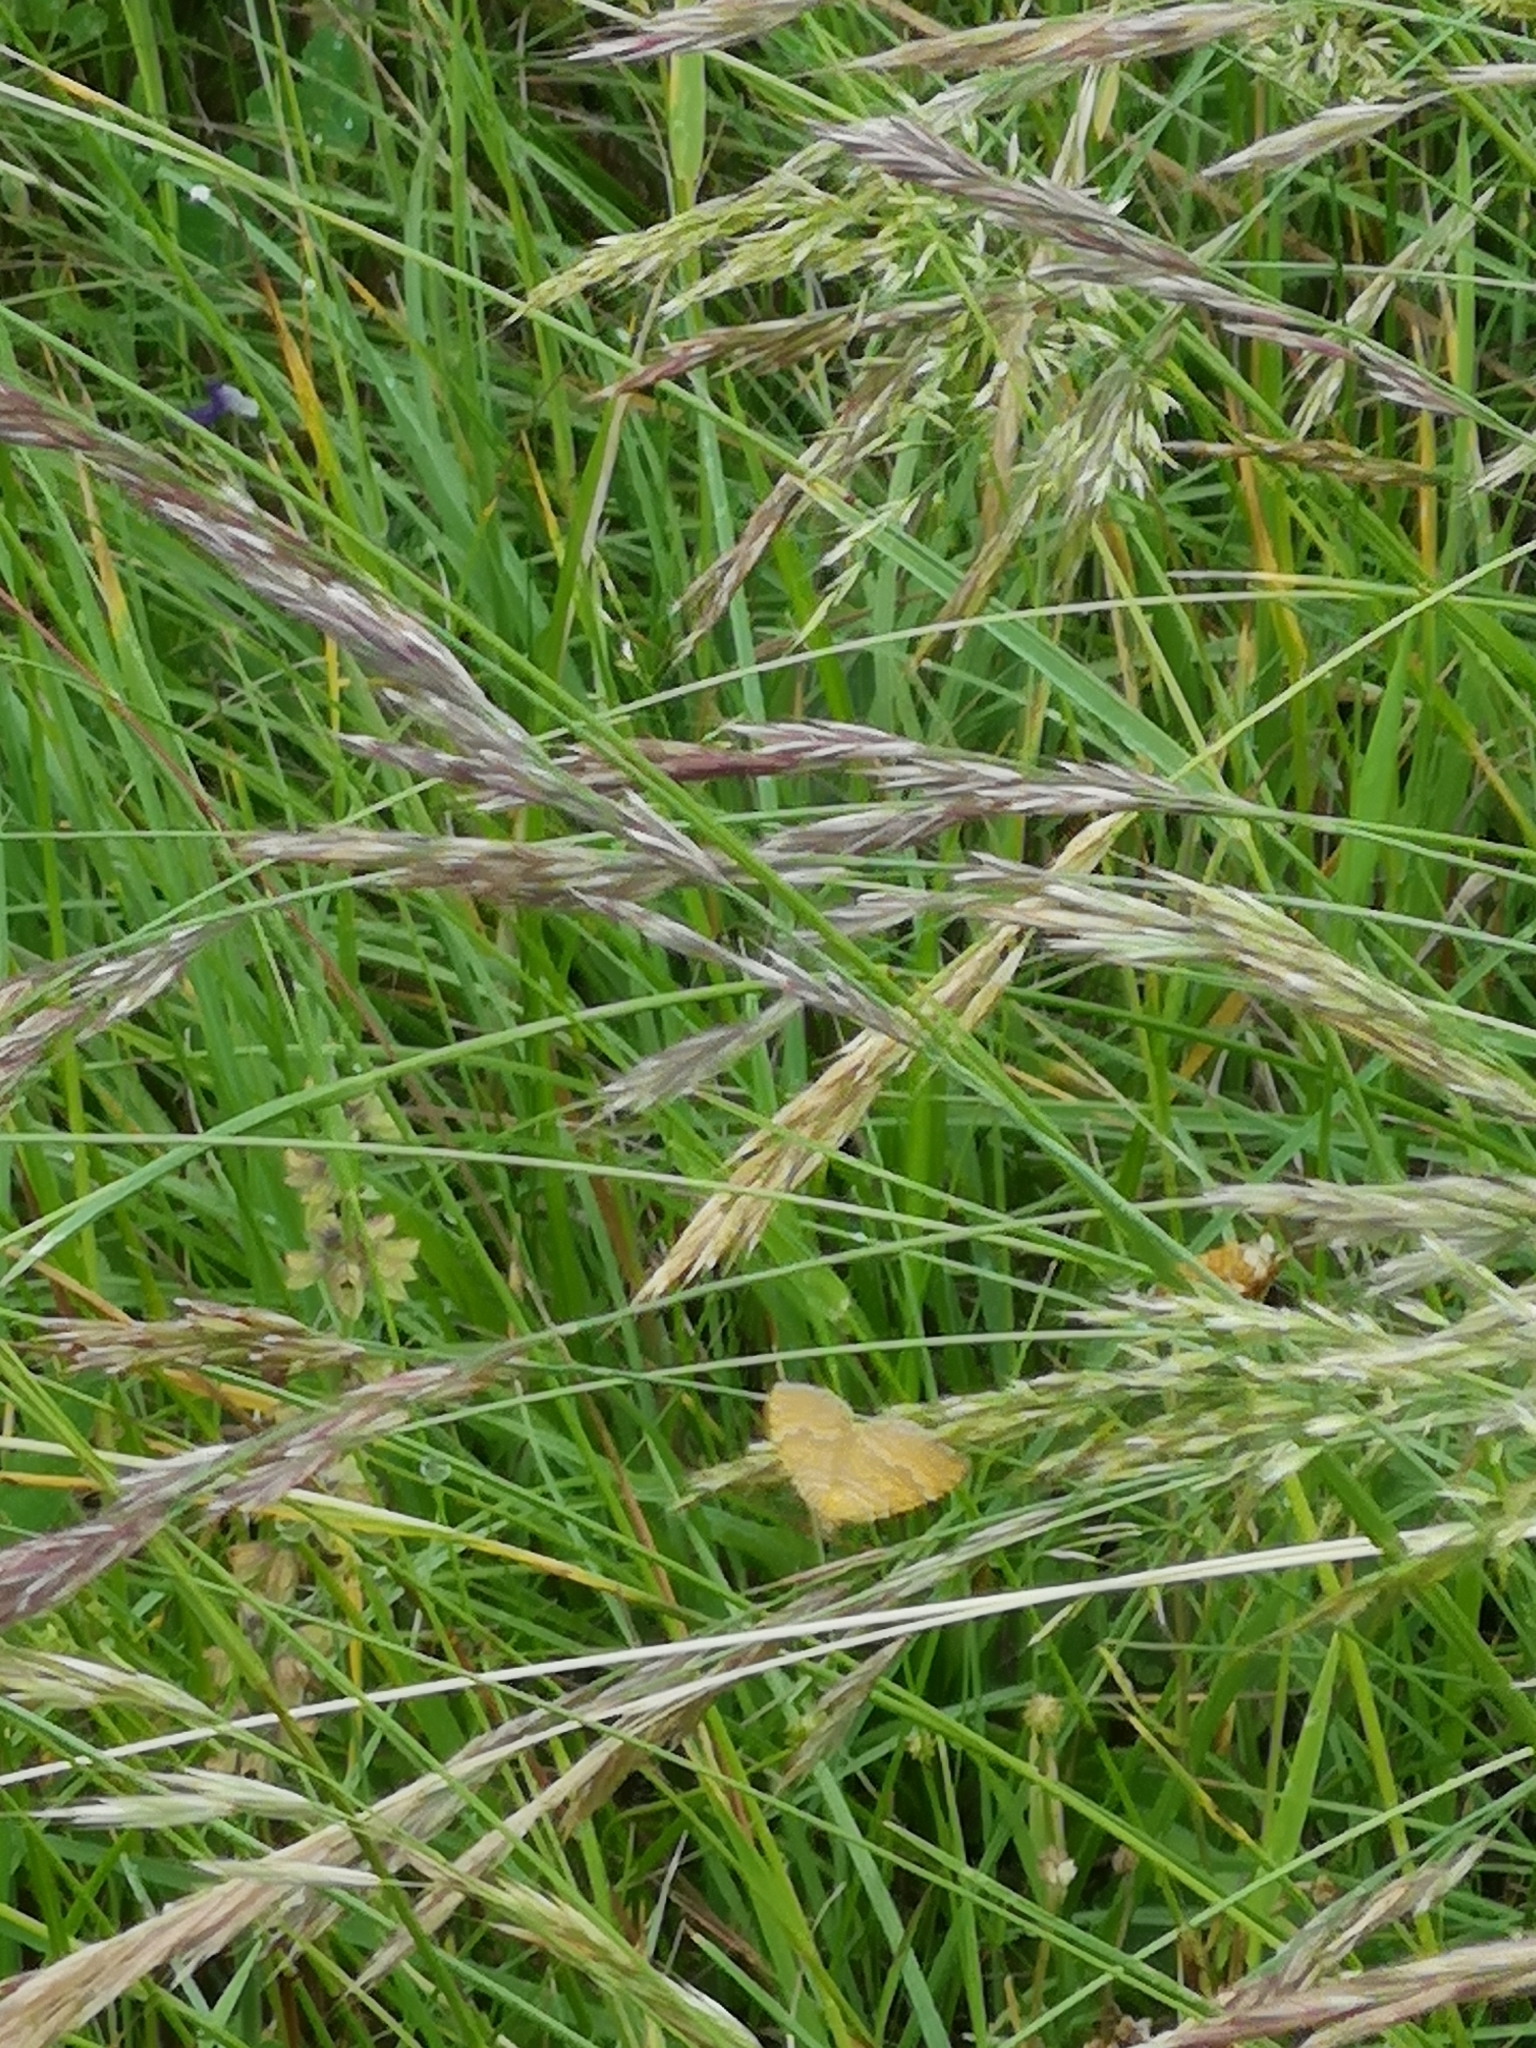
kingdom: Animalia
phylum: Arthropoda
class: Insecta
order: Lepidoptera
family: Geometridae
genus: Camptogramma
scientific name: Camptogramma bilineata
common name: Yellow shell
